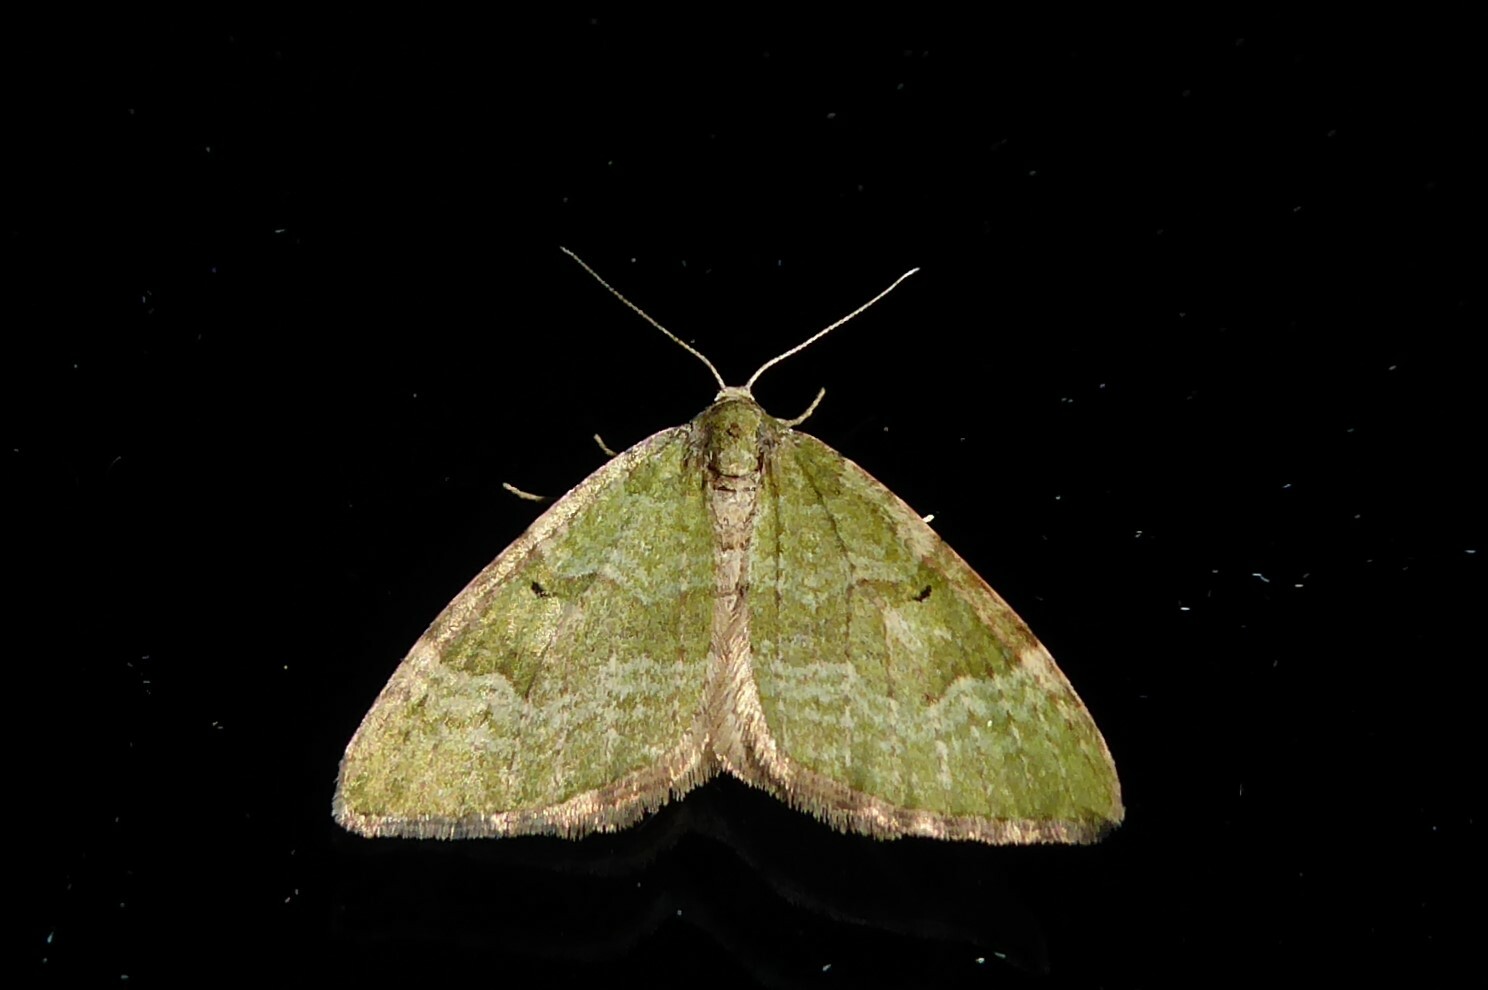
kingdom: Animalia
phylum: Arthropoda
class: Insecta
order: Lepidoptera
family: Geometridae
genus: Epyaxa
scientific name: Epyaxa rosearia
